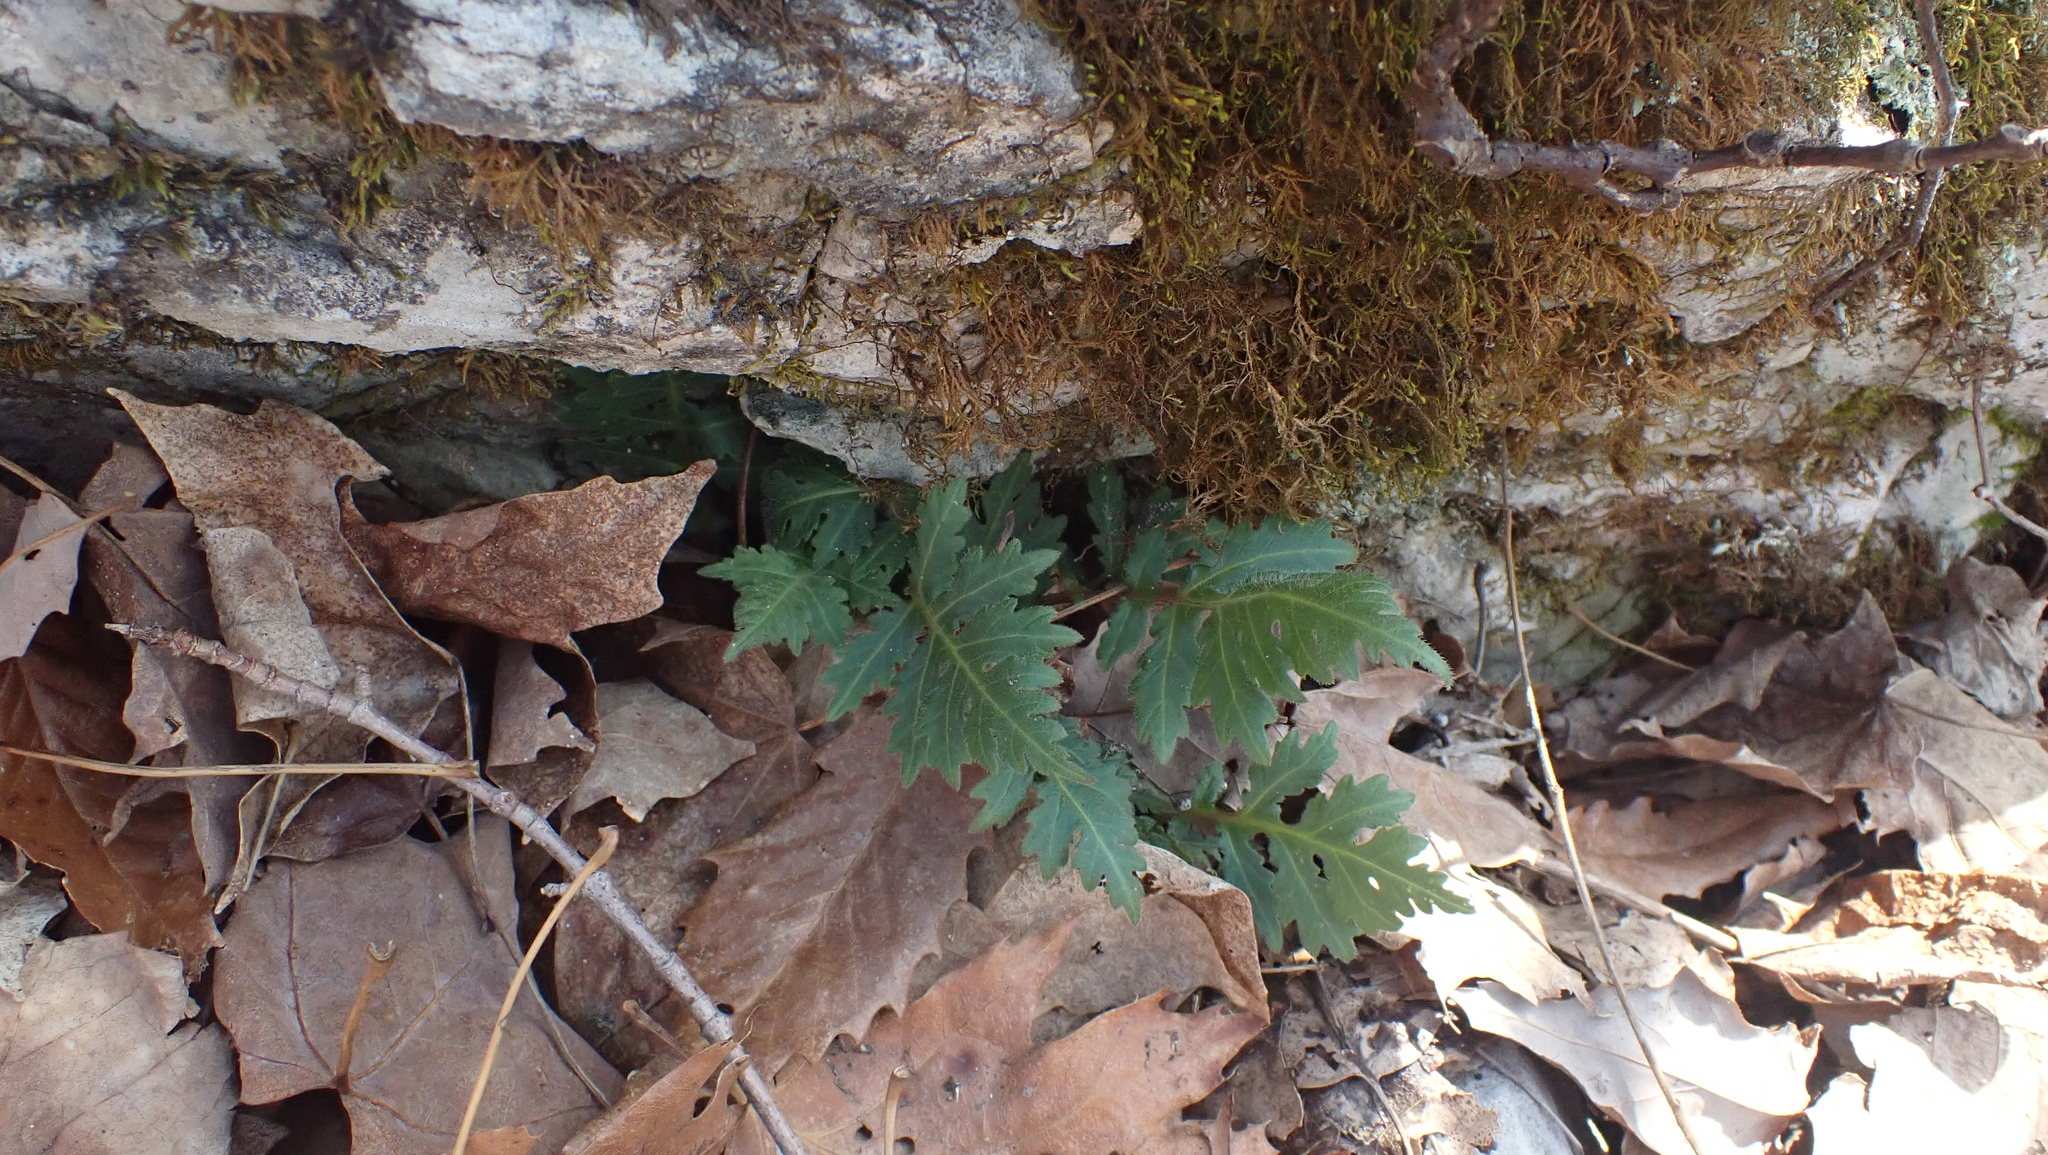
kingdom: Plantae
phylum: Tracheophyta
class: Magnoliopsida
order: Asterales
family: Asteraceae
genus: Polymnia
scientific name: Polymnia canadensis
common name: Pale-flowered leafcup
